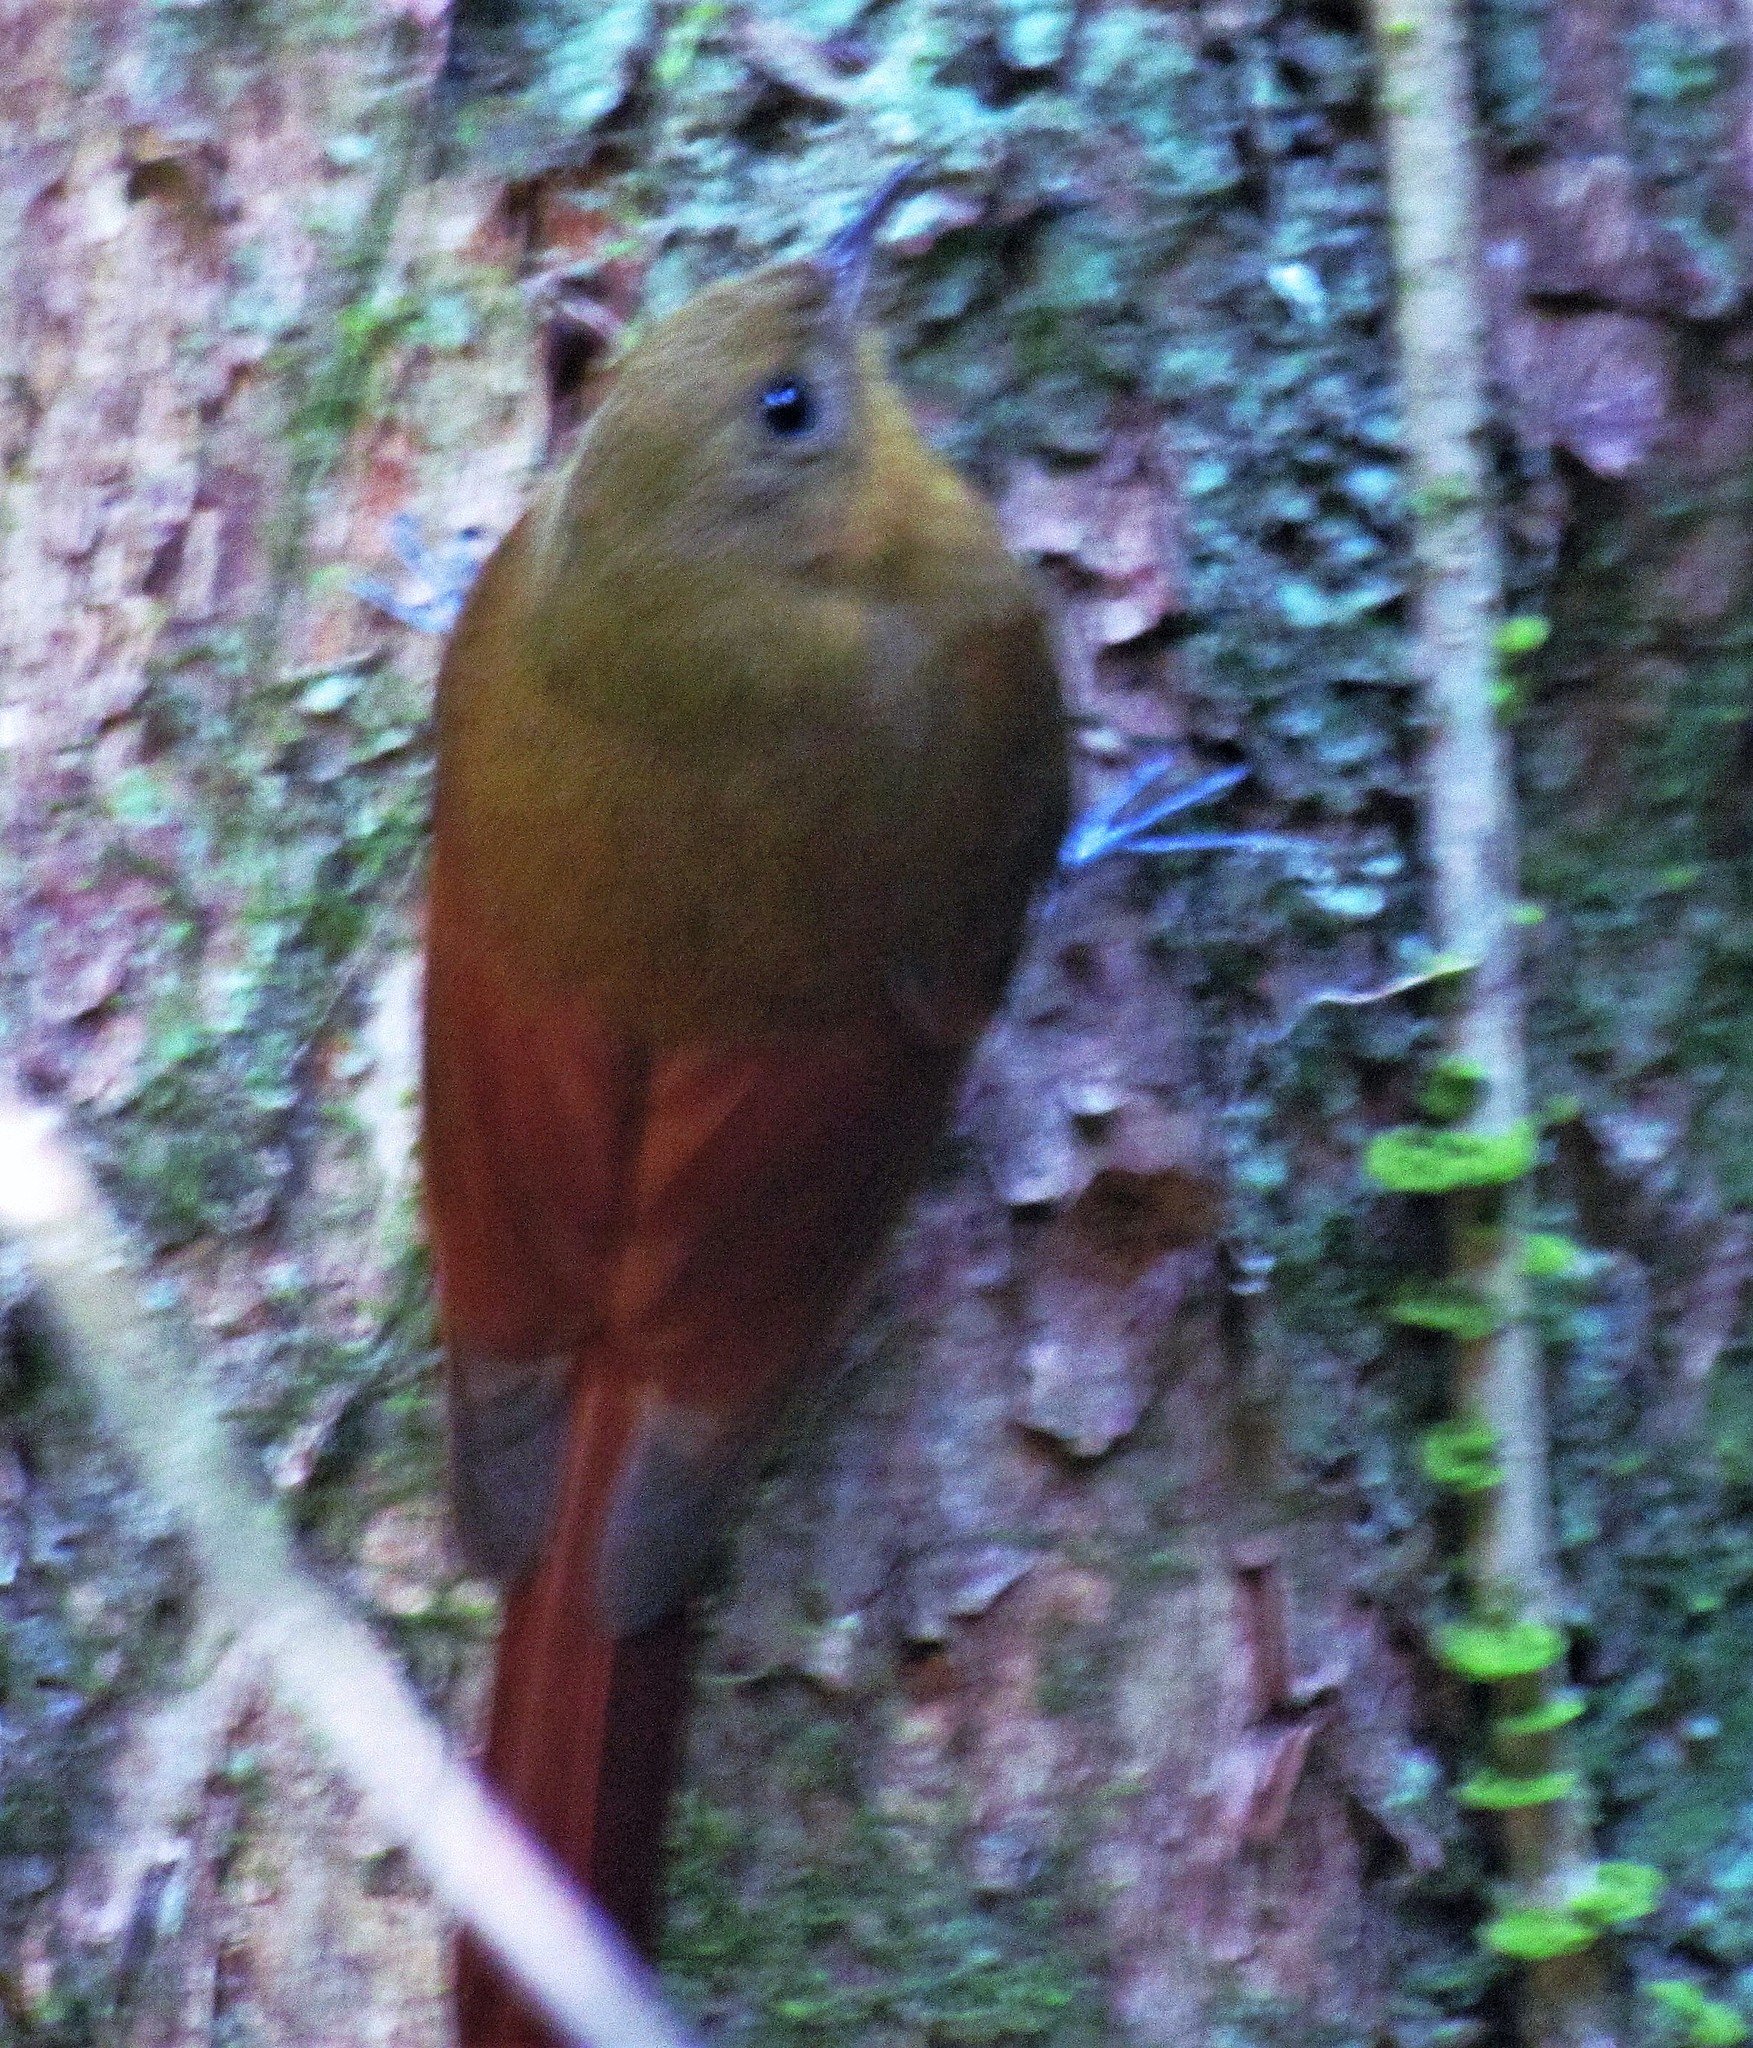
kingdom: Animalia
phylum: Chordata
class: Aves
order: Passeriformes
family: Furnariidae
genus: Sittasomus
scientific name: Sittasomus griseicapillus
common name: Olivaceous woodcreeper
